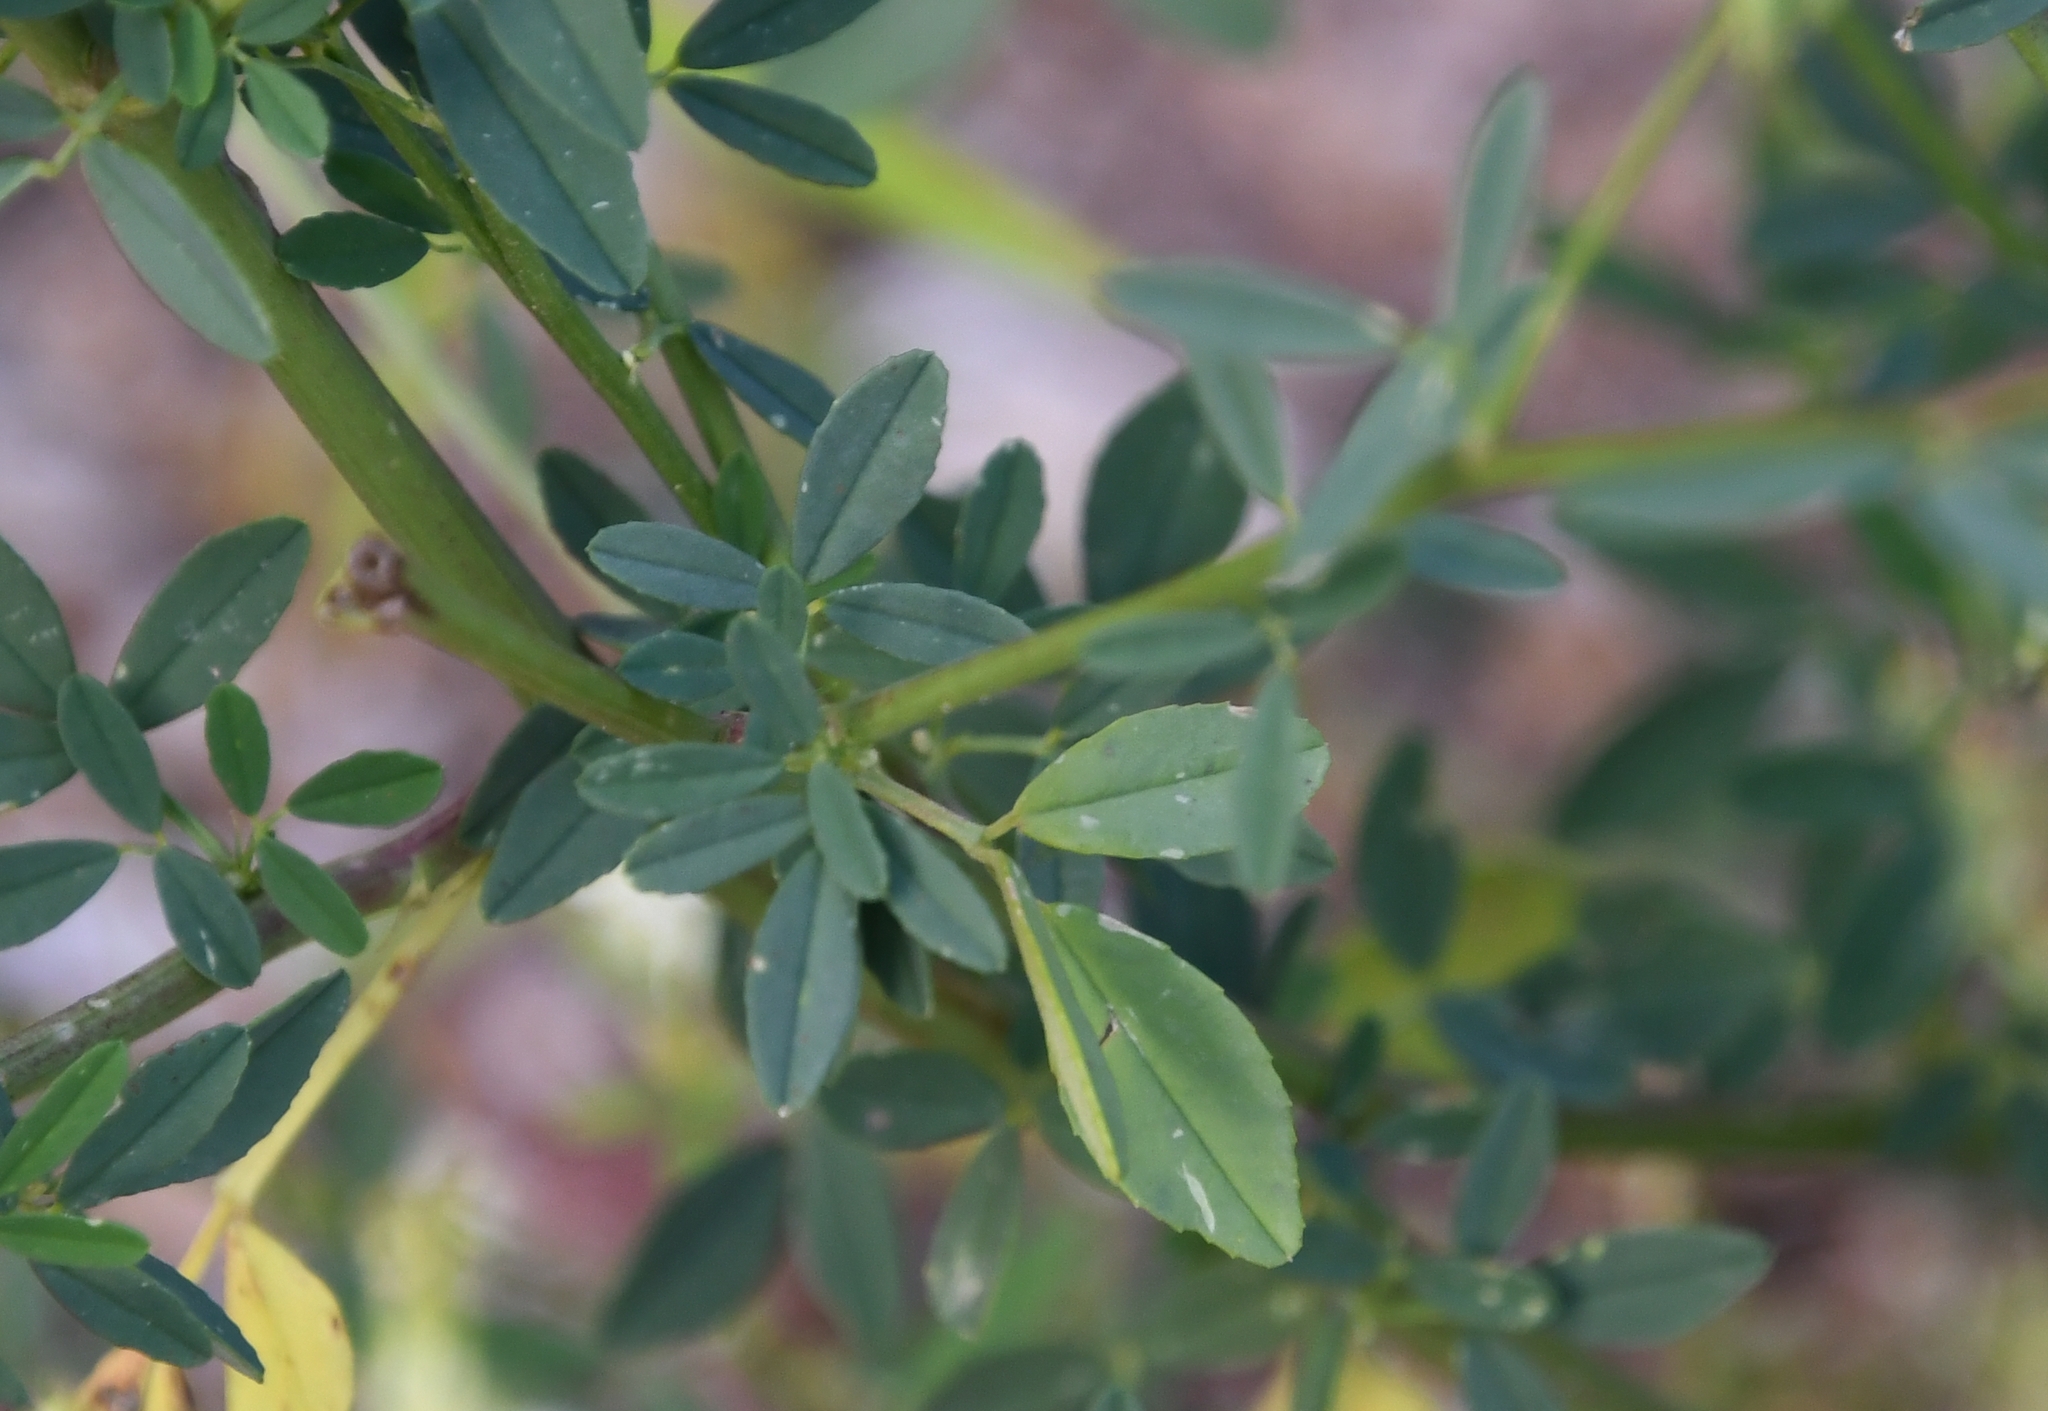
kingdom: Plantae
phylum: Tracheophyta
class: Magnoliopsida
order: Fabales
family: Fabaceae
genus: Melilotus
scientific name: Melilotus albus
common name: White melilot
